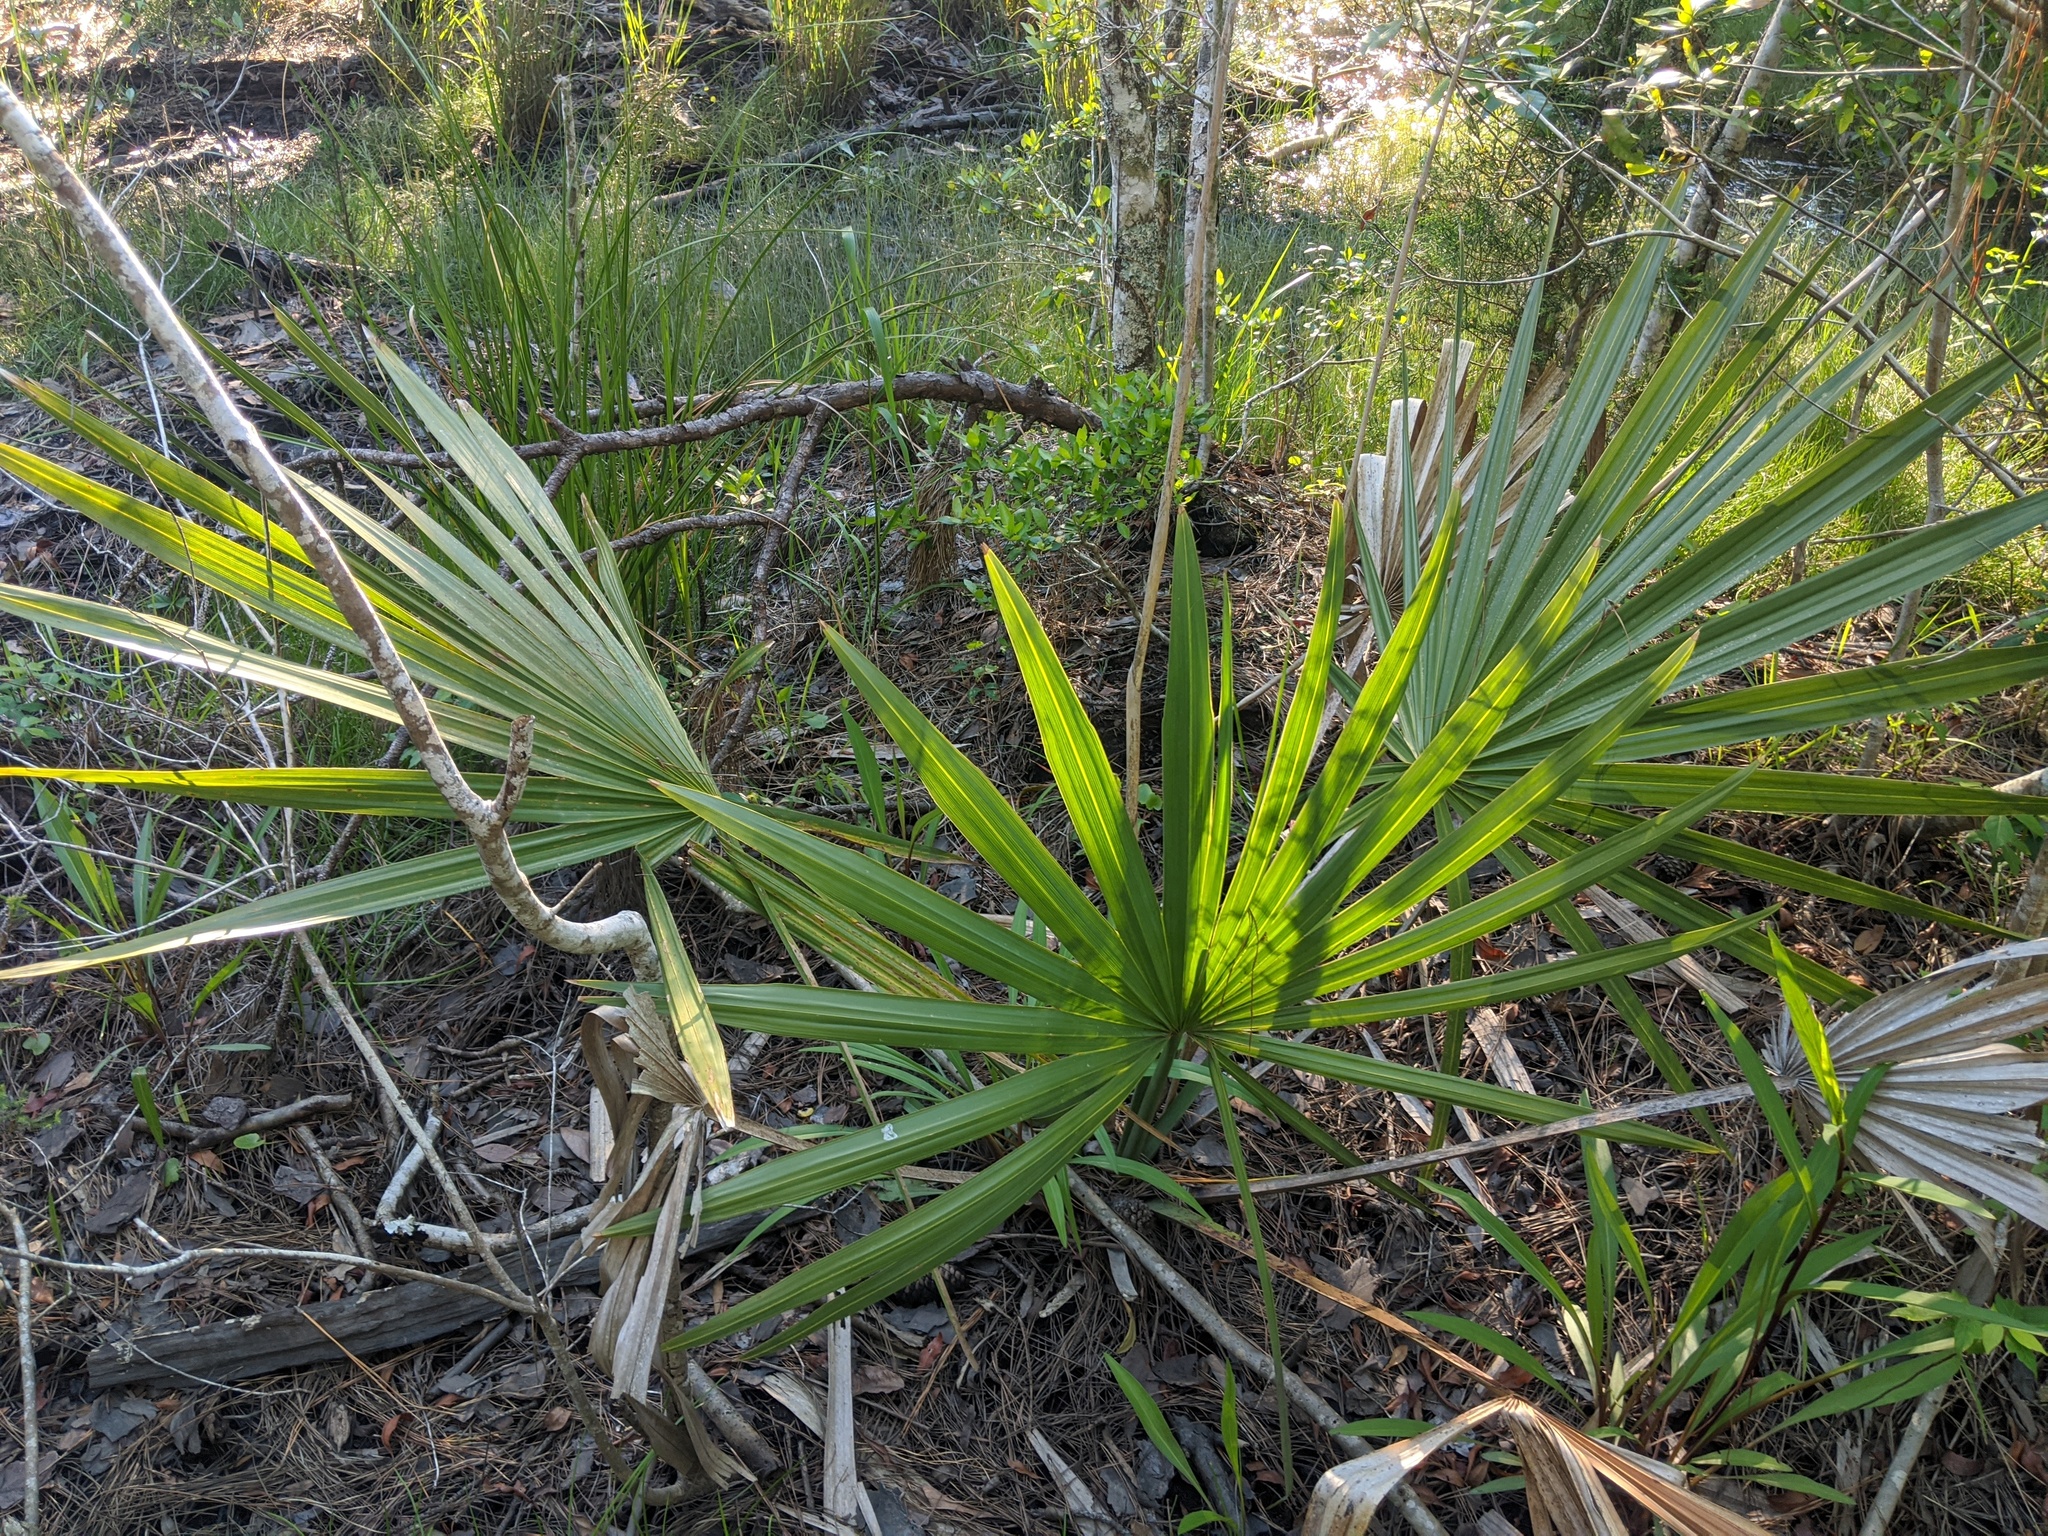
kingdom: Plantae
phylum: Tracheophyta
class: Liliopsida
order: Arecales
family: Arecaceae
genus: Sabal
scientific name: Sabal minor
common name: Dwarf palmetto
